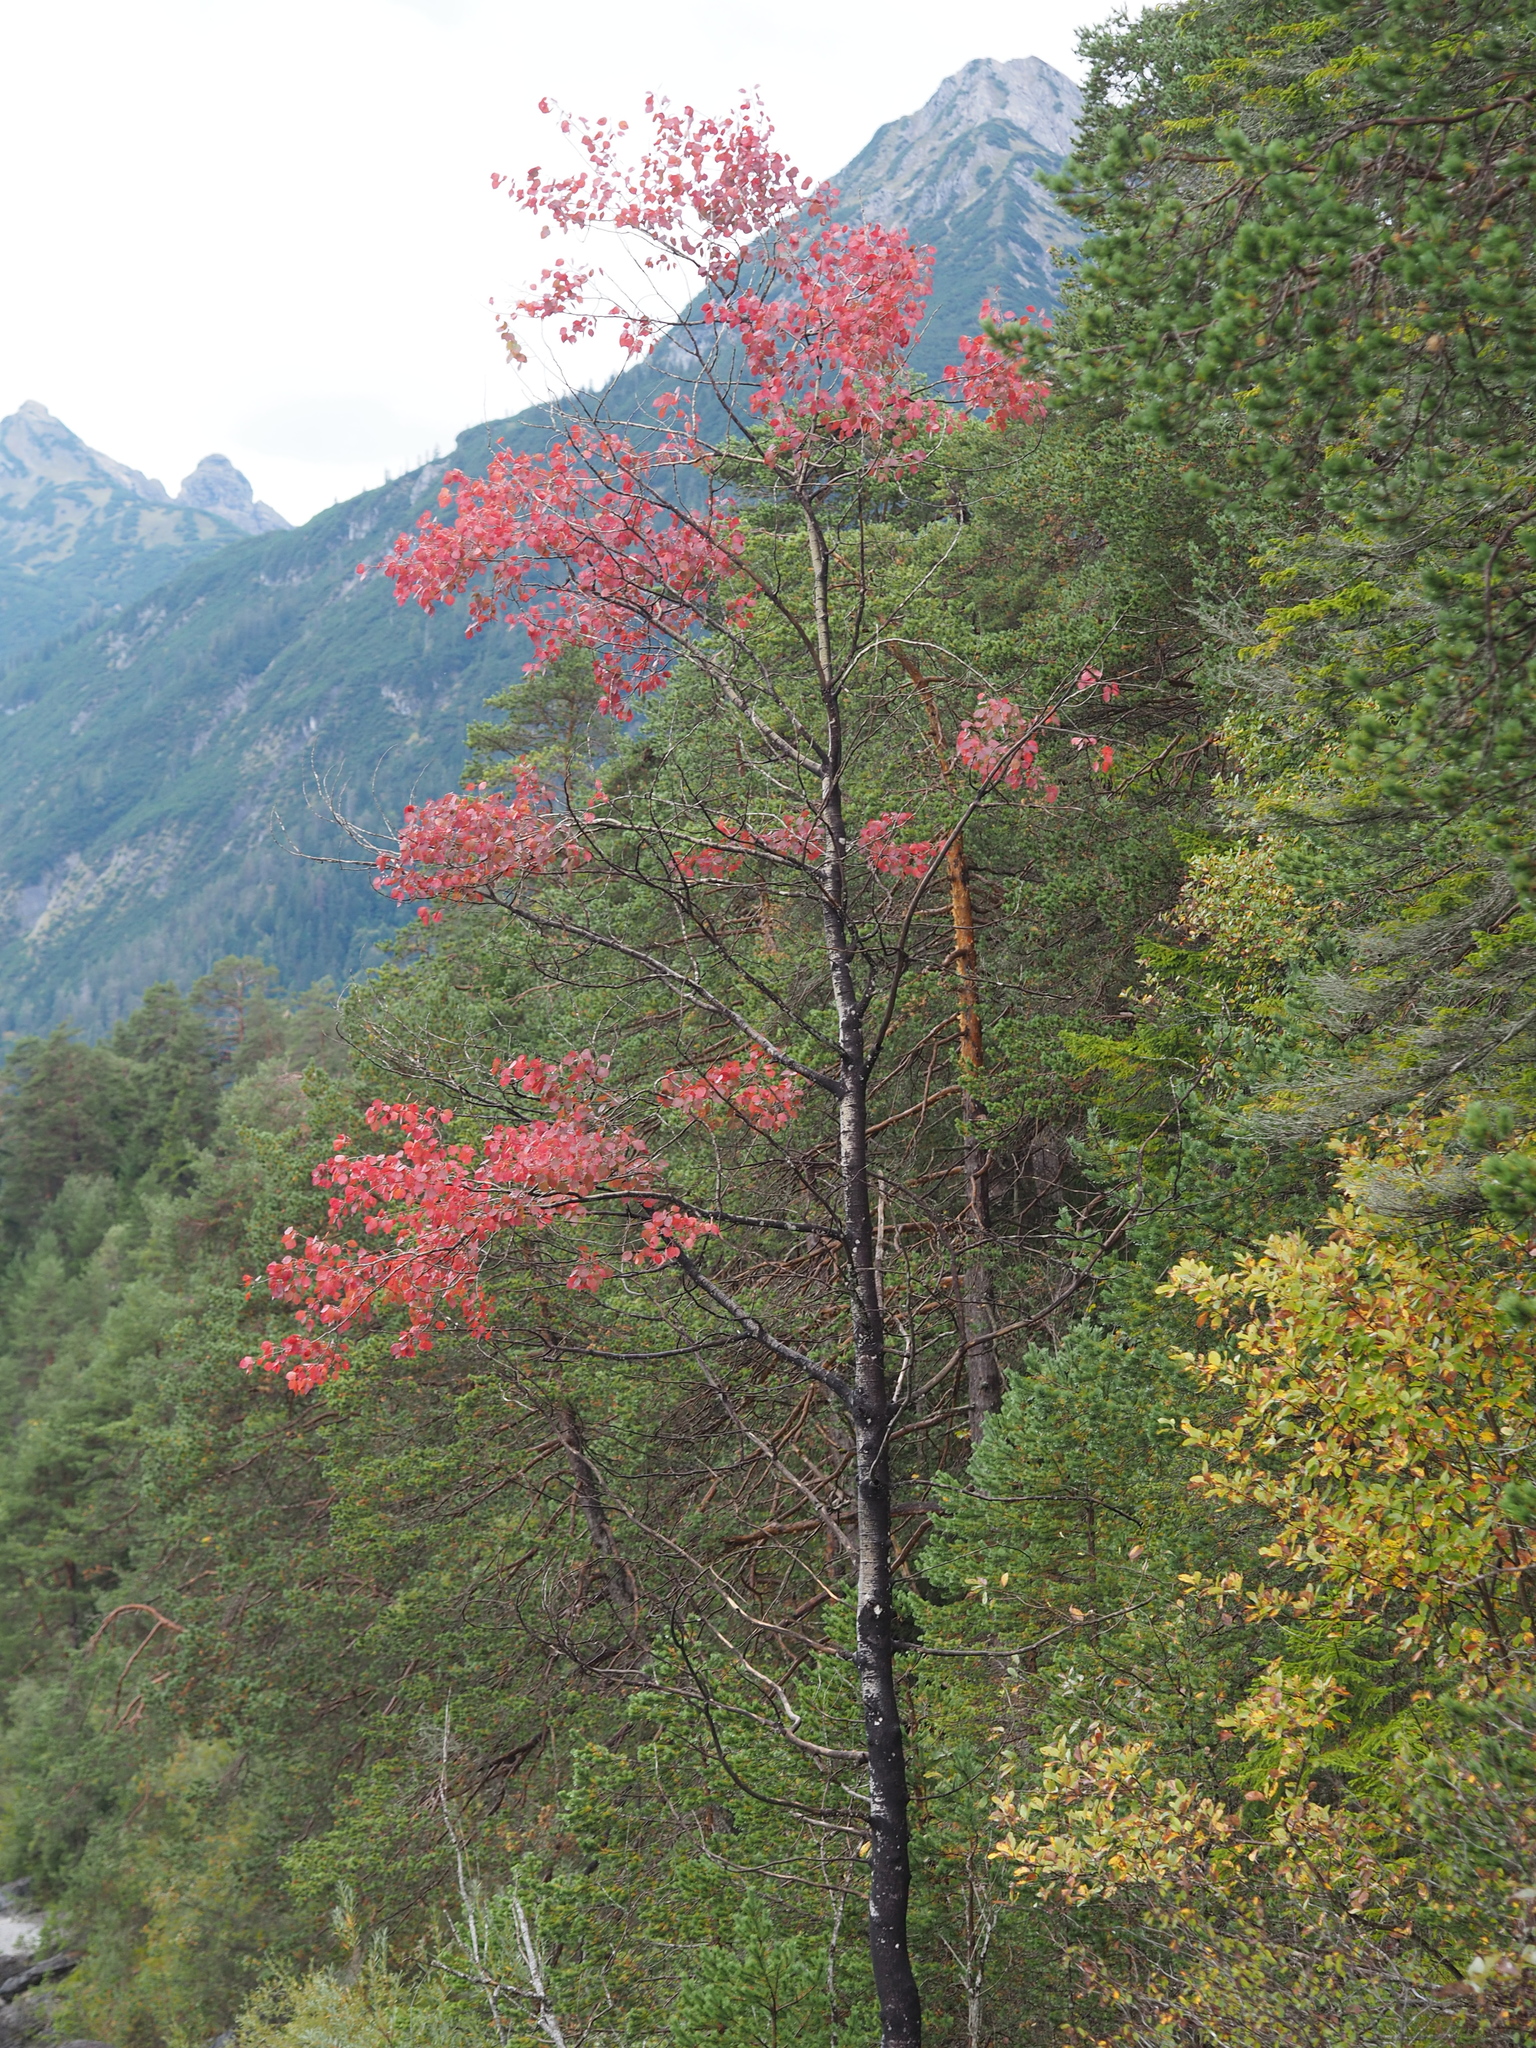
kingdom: Plantae
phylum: Tracheophyta
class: Magnoliopsida
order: Malpighiales
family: Salicaceae
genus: Populus
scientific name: Populus tremula
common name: European aspen
